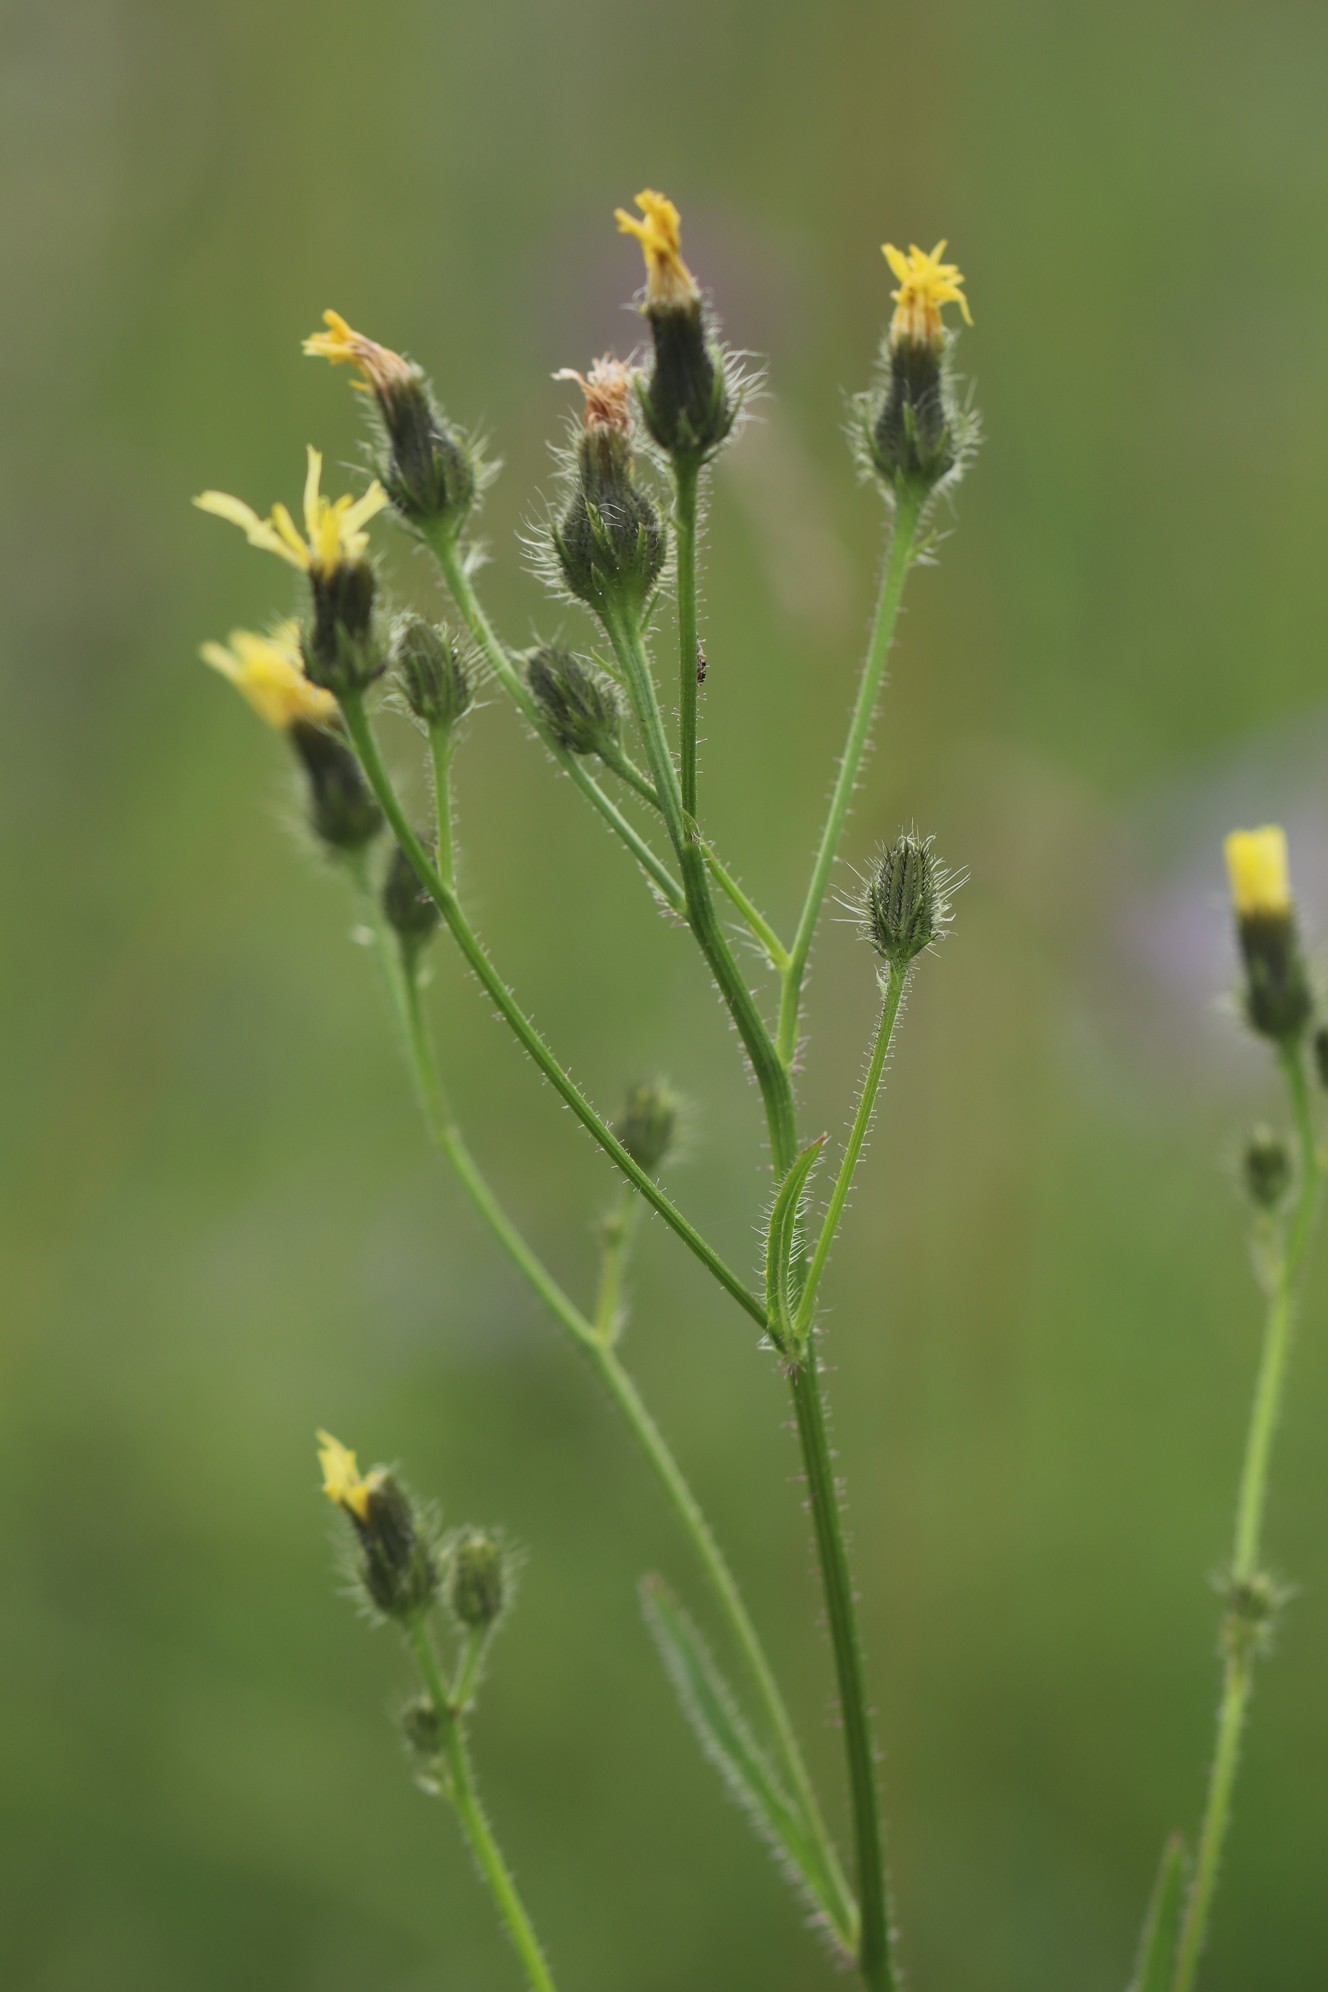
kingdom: Plantae
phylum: Tracheophyta
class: Magnoliopsida
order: Asterales
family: Asteraceae
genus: Picris
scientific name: Picris davurica
